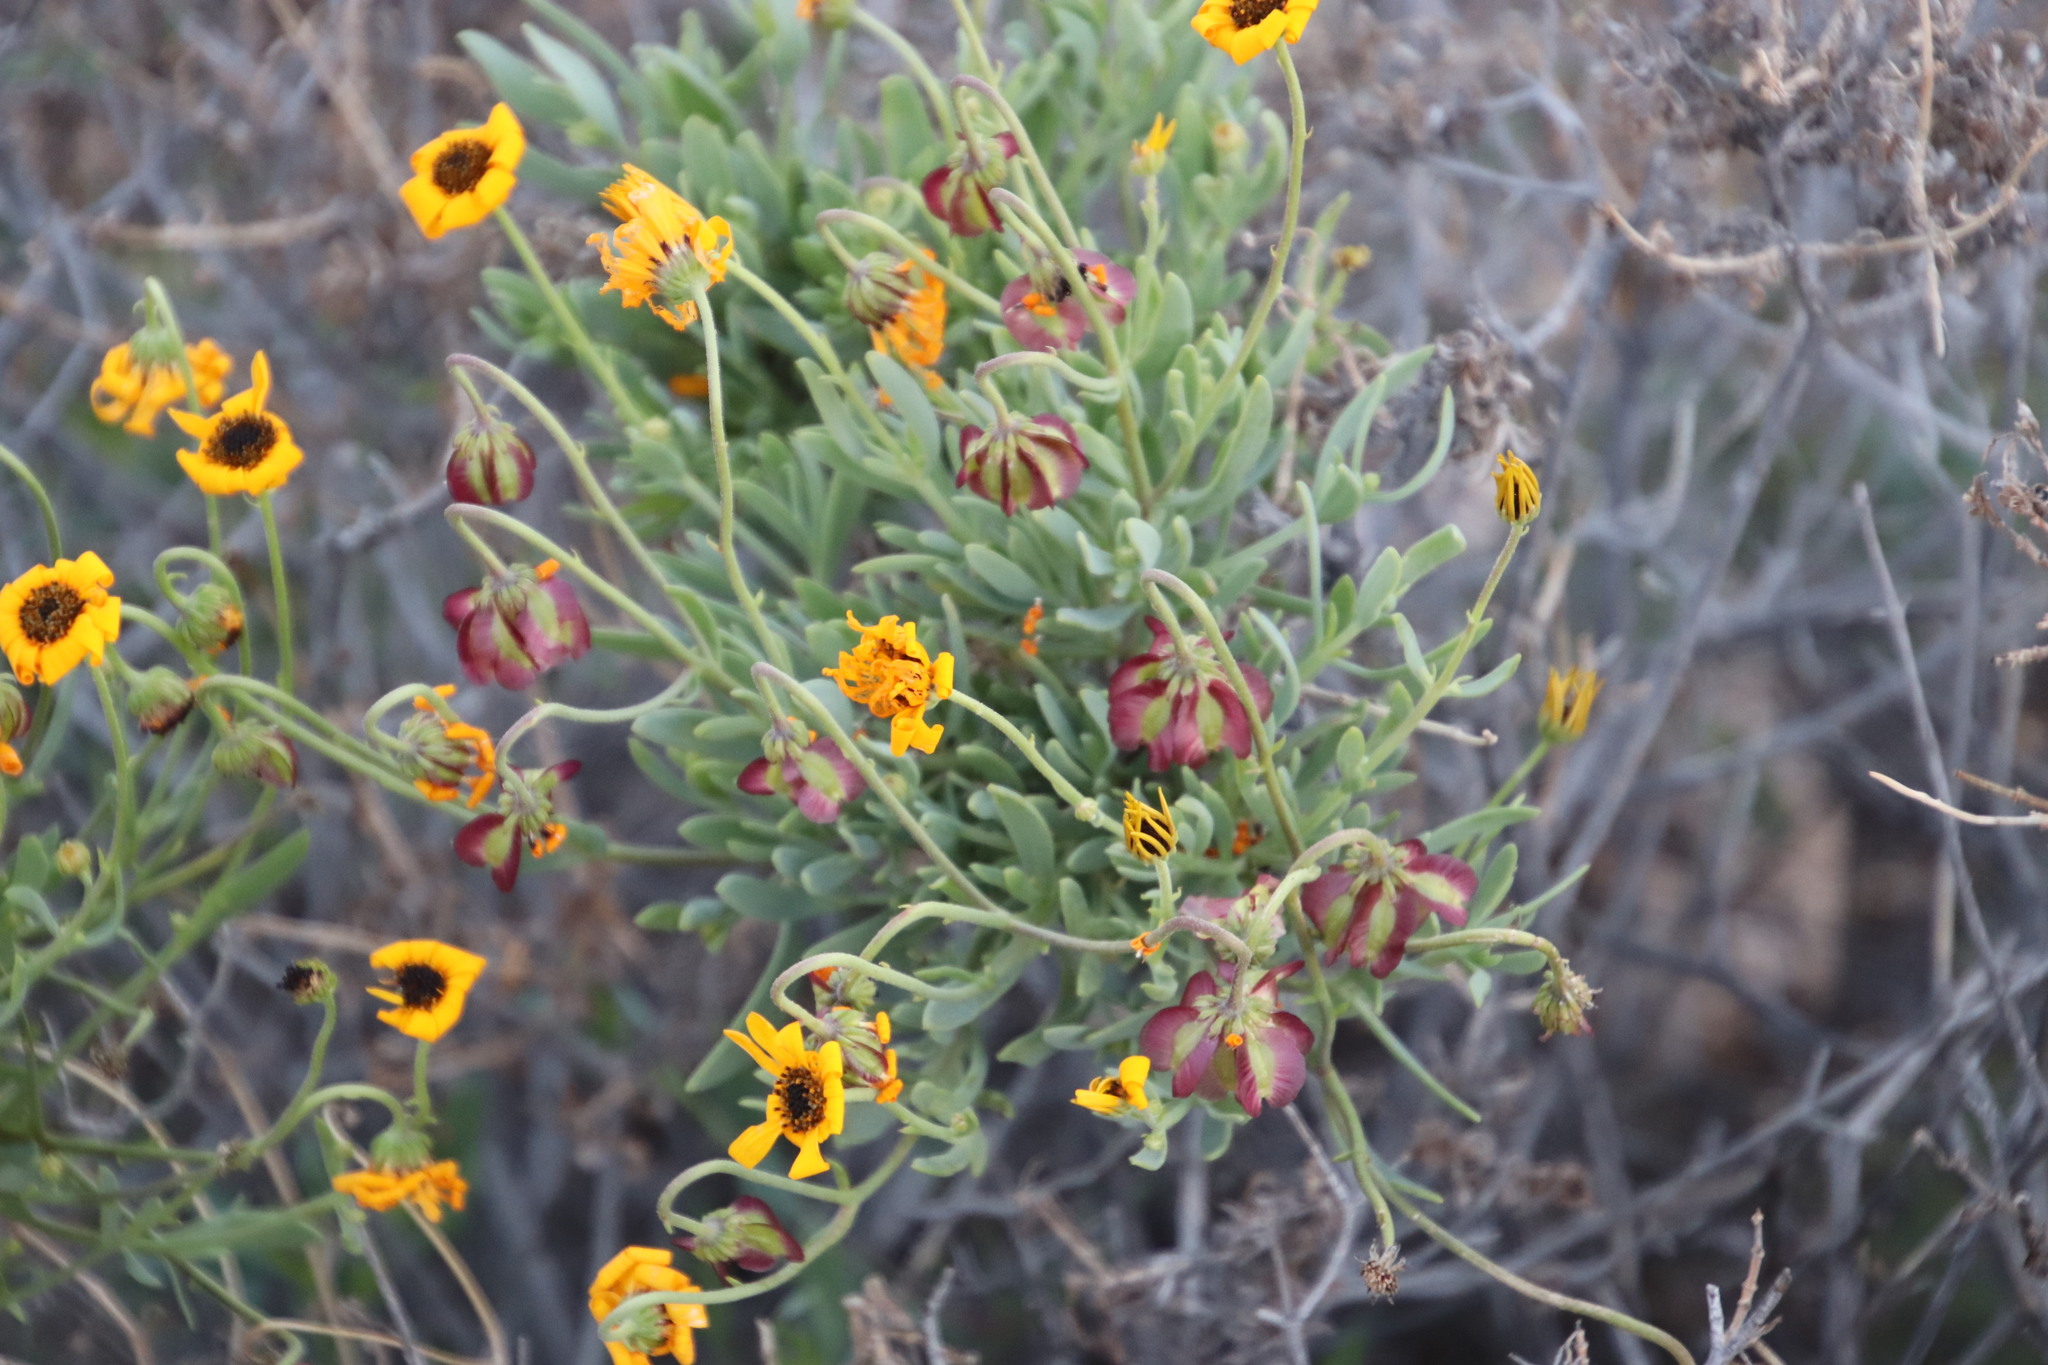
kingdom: Plantae
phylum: Tracheophyta
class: Magnoliopsida
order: Asterales
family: Asteraceae
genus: Osteospermum
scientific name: Osteospermum oppositifolium
